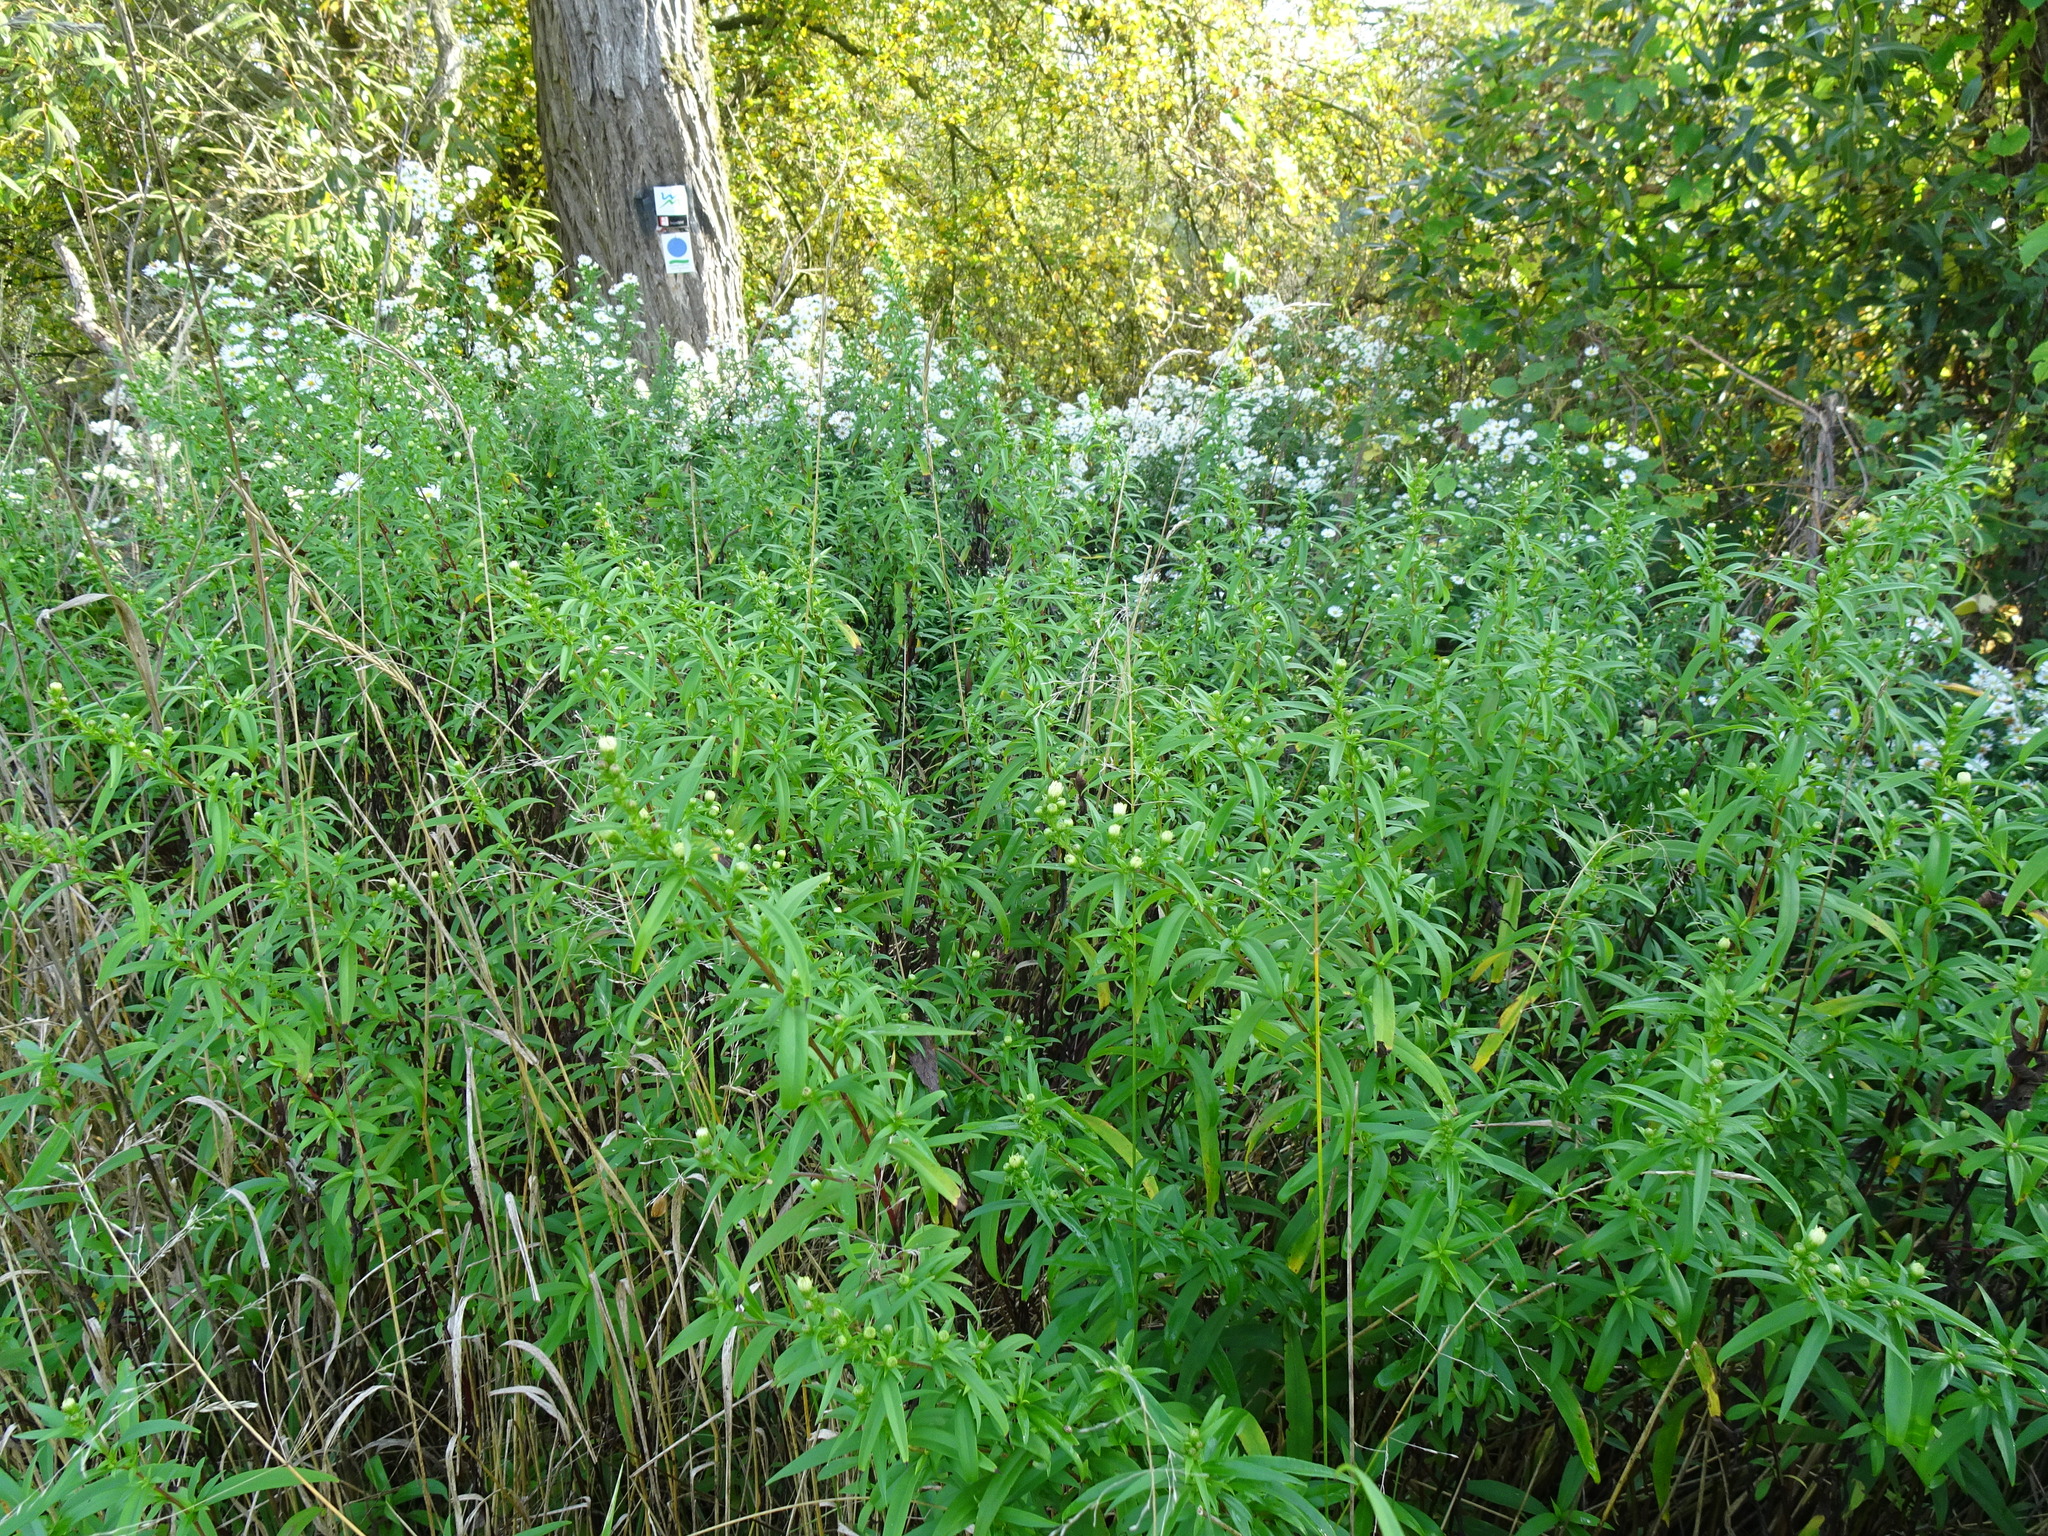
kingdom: Plantae
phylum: Tracheophyta
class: Magnoliopsida
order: Asterales
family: Asteraceae
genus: Symphyotrichum
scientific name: Symphyotrichum lanceolatum
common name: Panicled aster
